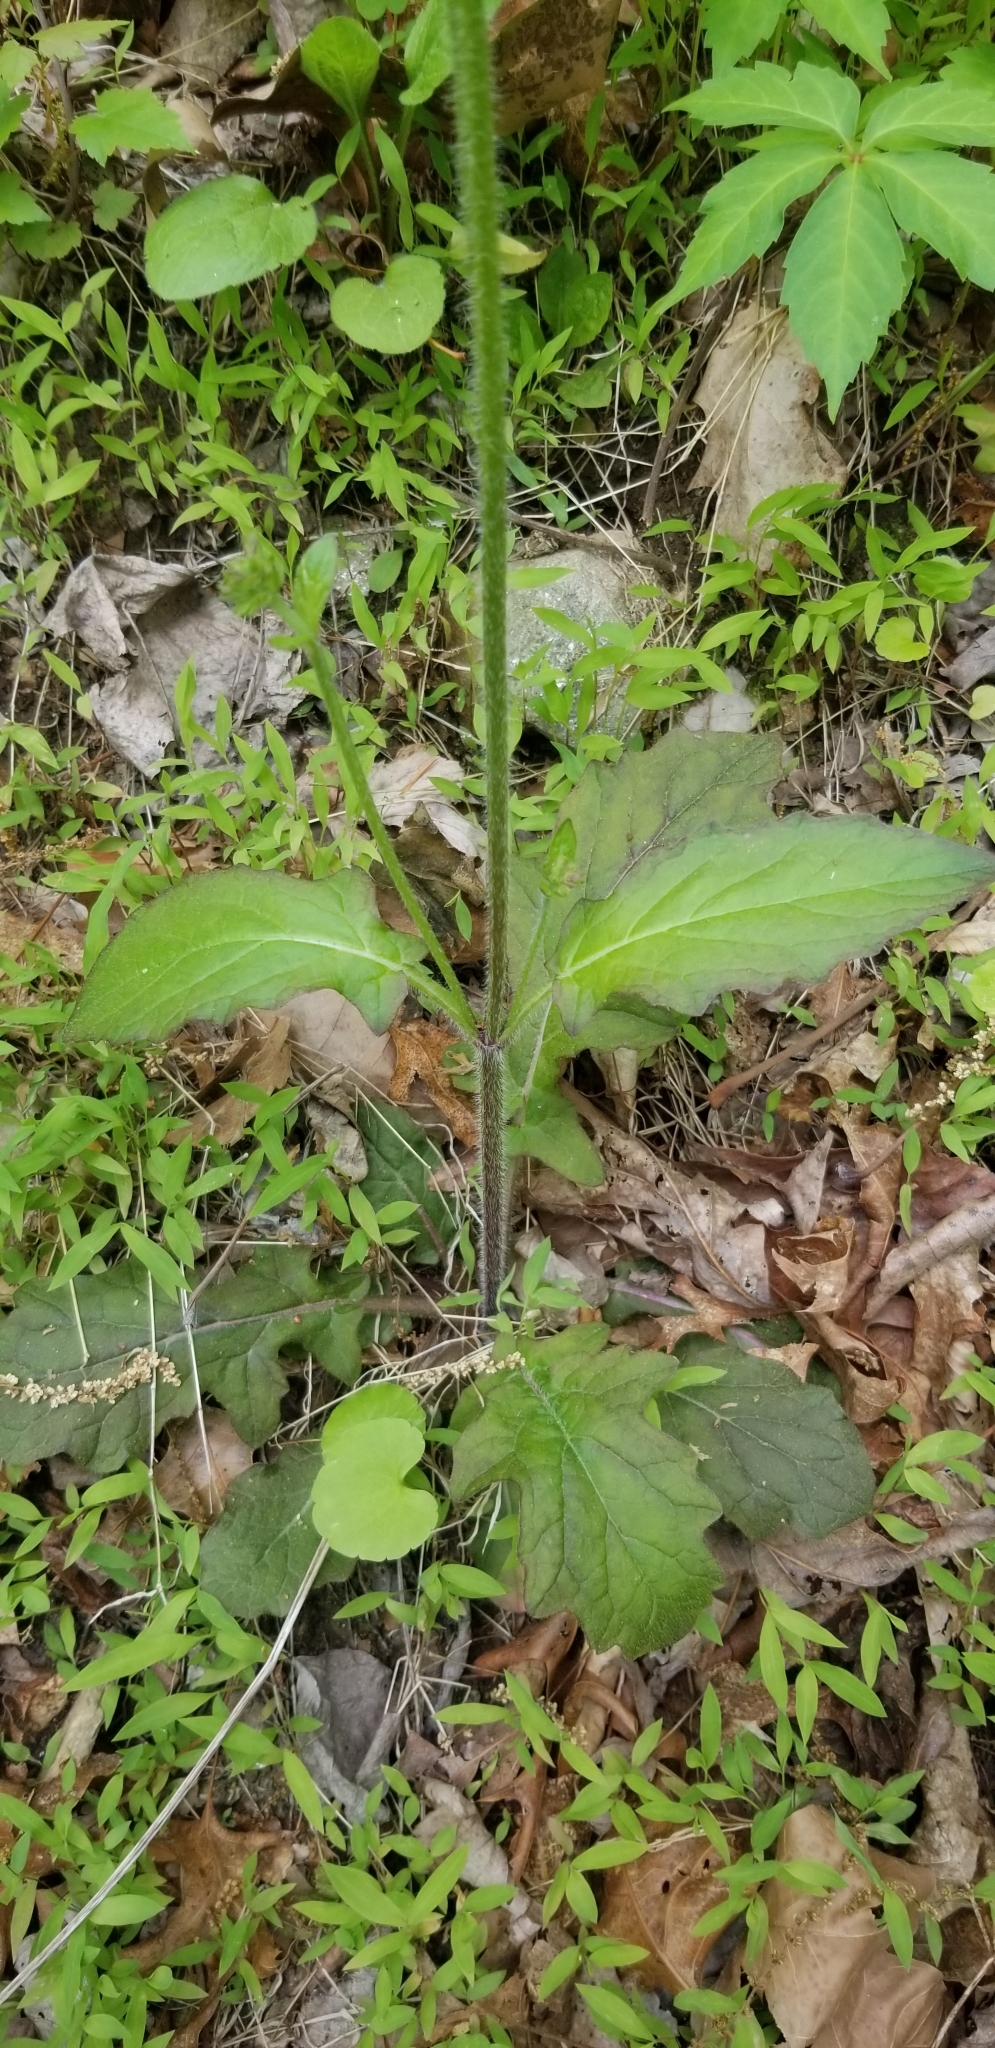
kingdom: Plantae
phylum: Tracheophyta
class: Magnoliopsida
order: Lamiales
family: Lamiaceae
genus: Salvia
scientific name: Salvia lyrata
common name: Cancerweed
